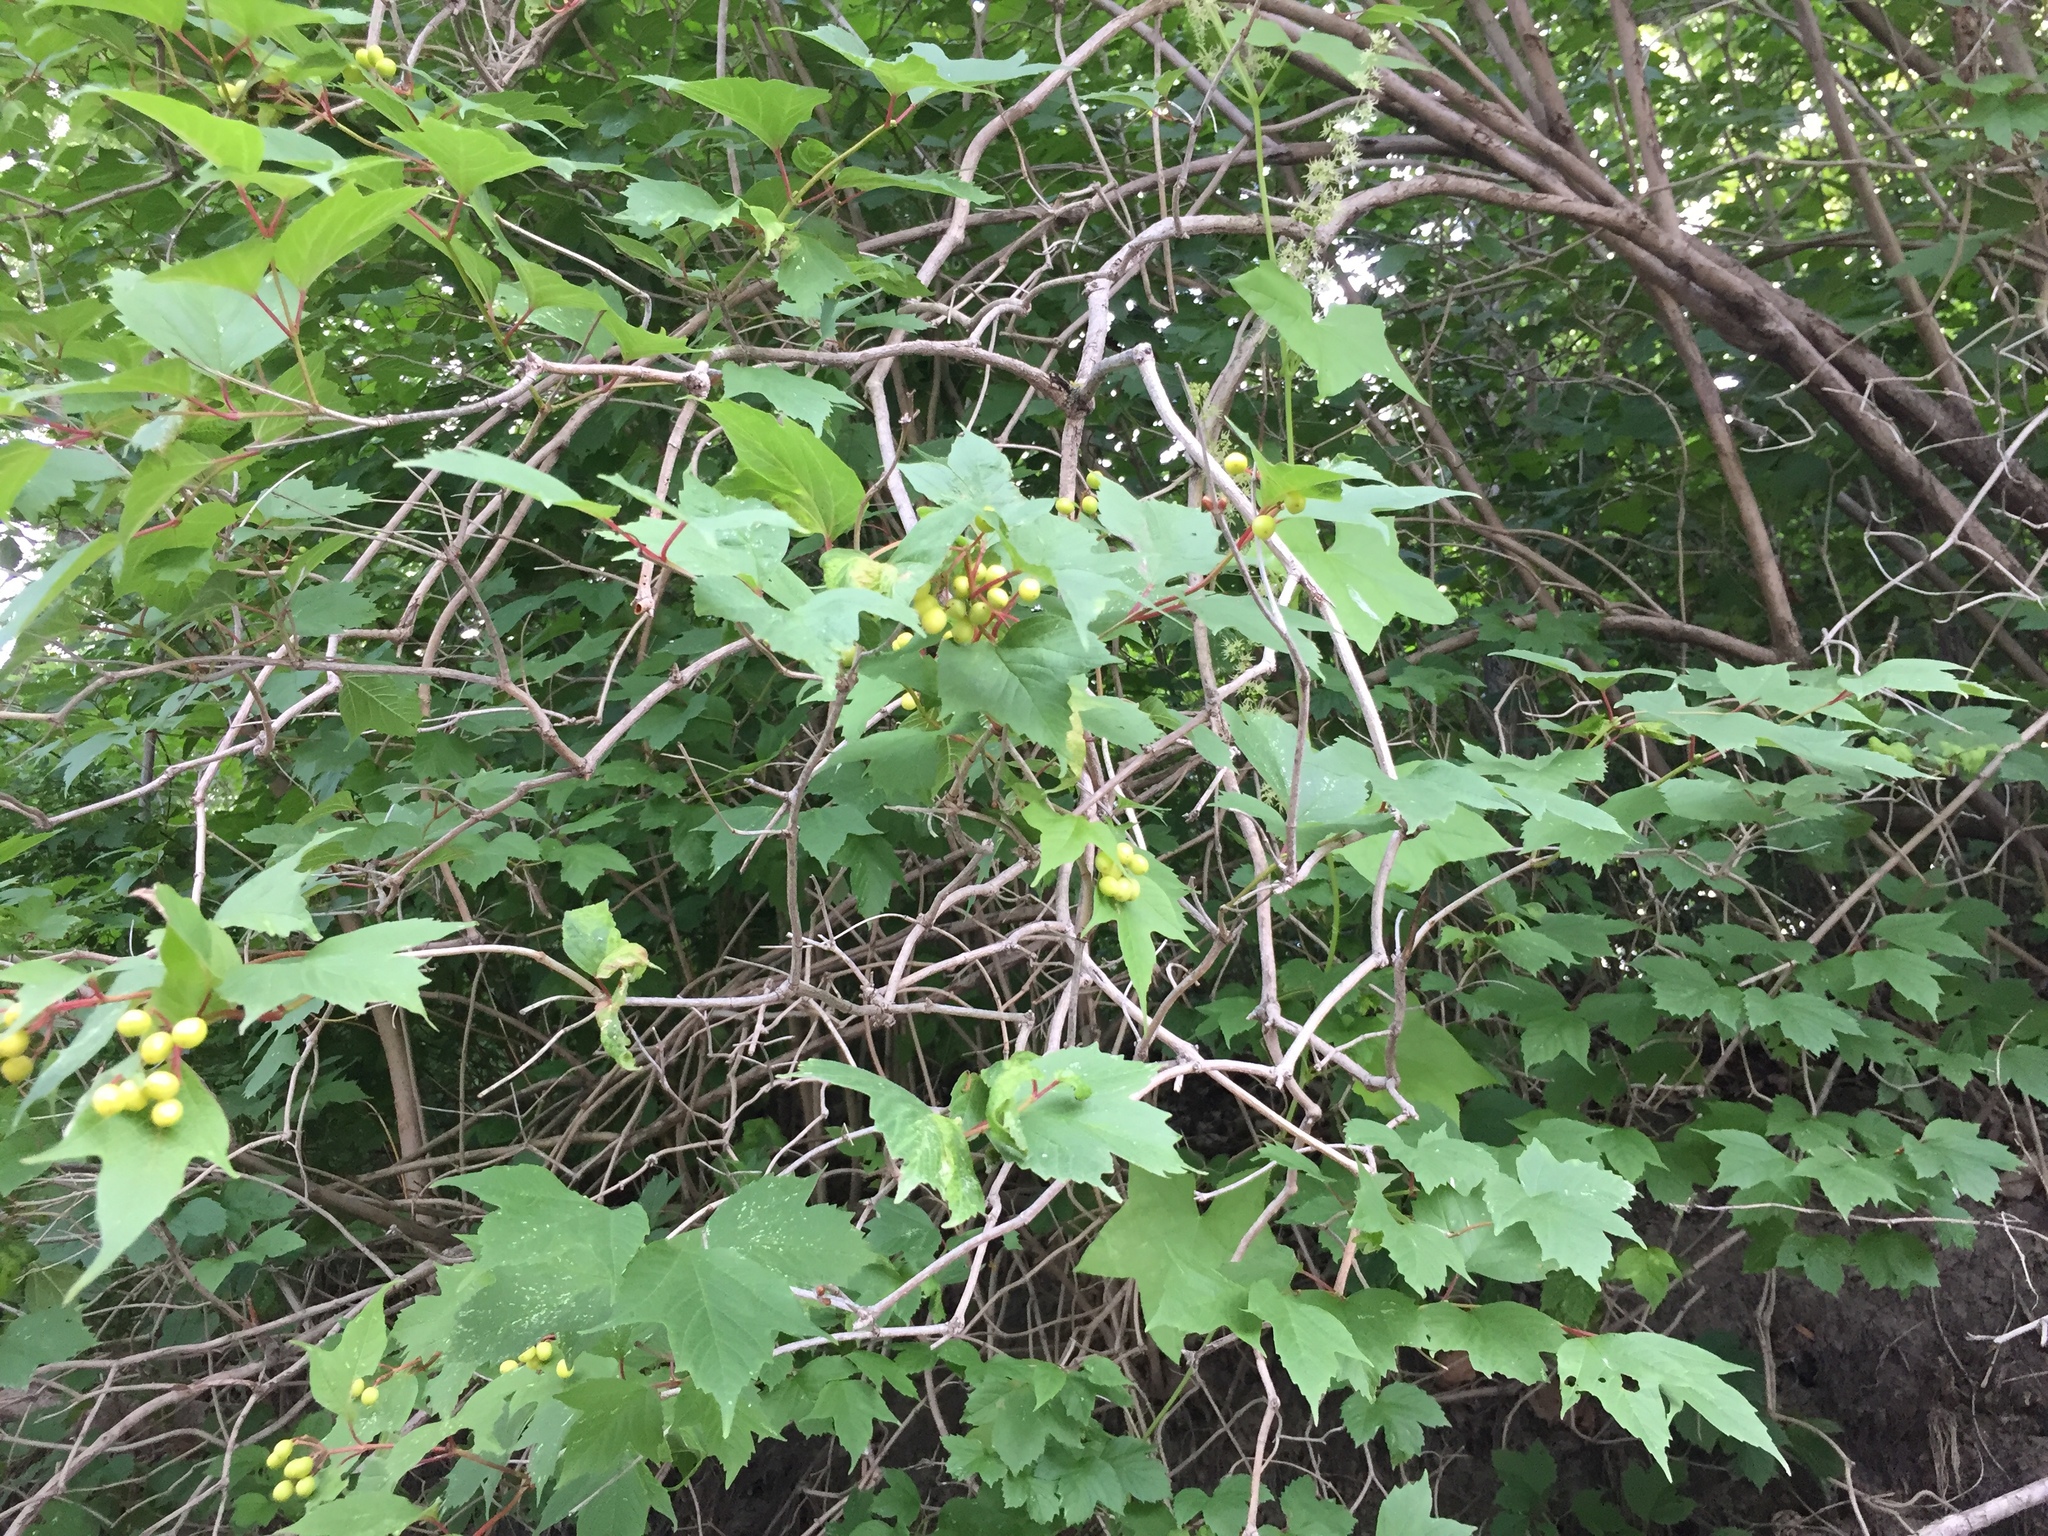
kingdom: Plantae
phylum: Tracheophyta
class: Magnoliopsida
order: Dipsacales
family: Viburnaceae
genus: Viburnum
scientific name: Viburnum trilobum
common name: American cranberrybush
